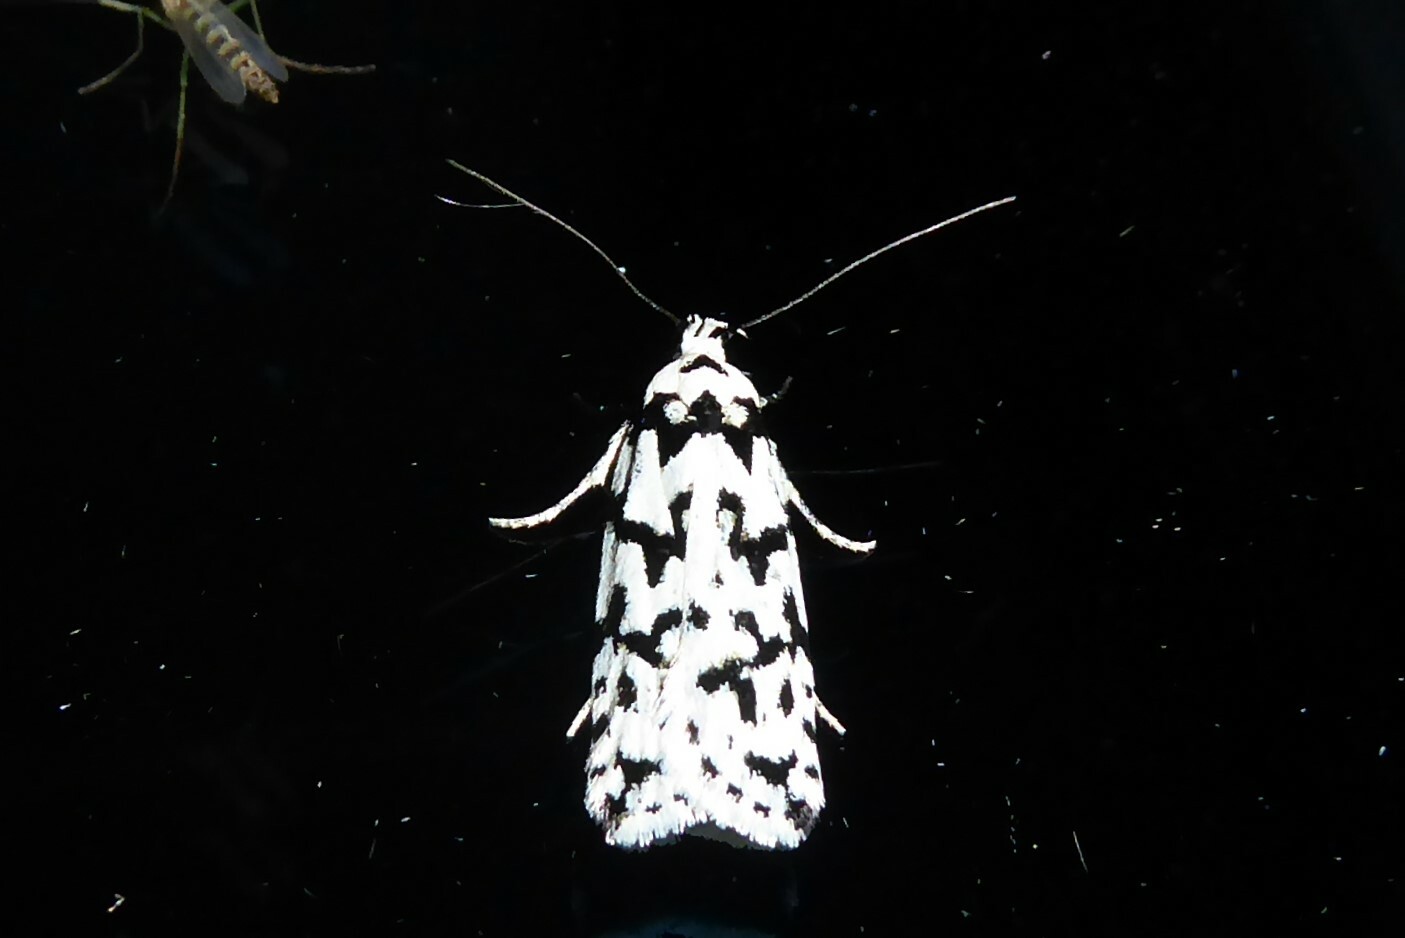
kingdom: Animalia
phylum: Arthropoda
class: Insecta
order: Lepidoptera
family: Oecophoridae
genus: Izatha
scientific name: Izatha katadiktya
